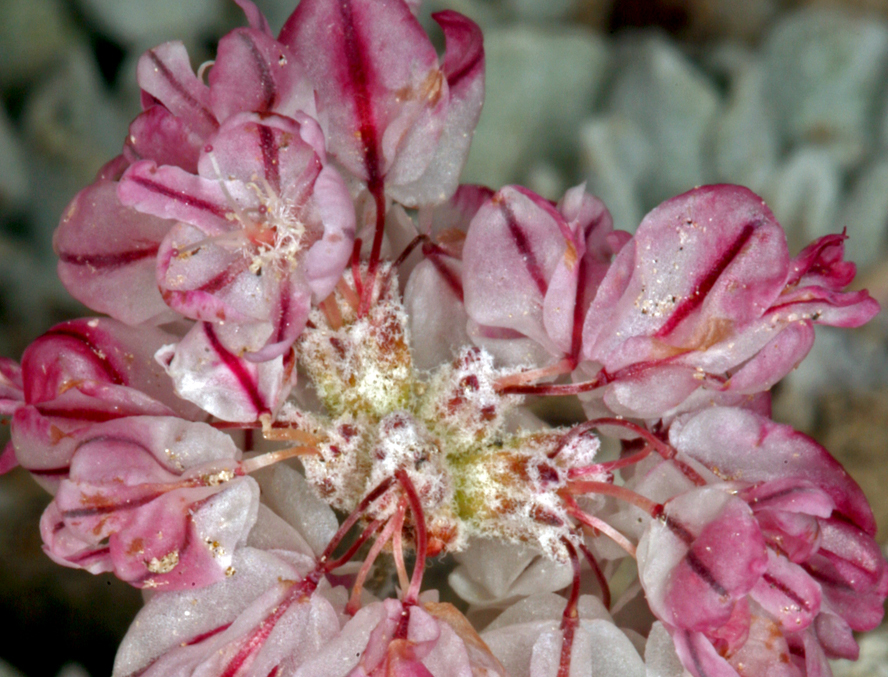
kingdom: Plantae
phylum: Tracheophyta
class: Magnoliopsida
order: Caryophyllales
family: Polygonaceae
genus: Eriogonum
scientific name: Eriogonum ovalifolium
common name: Cushion buckwheat
